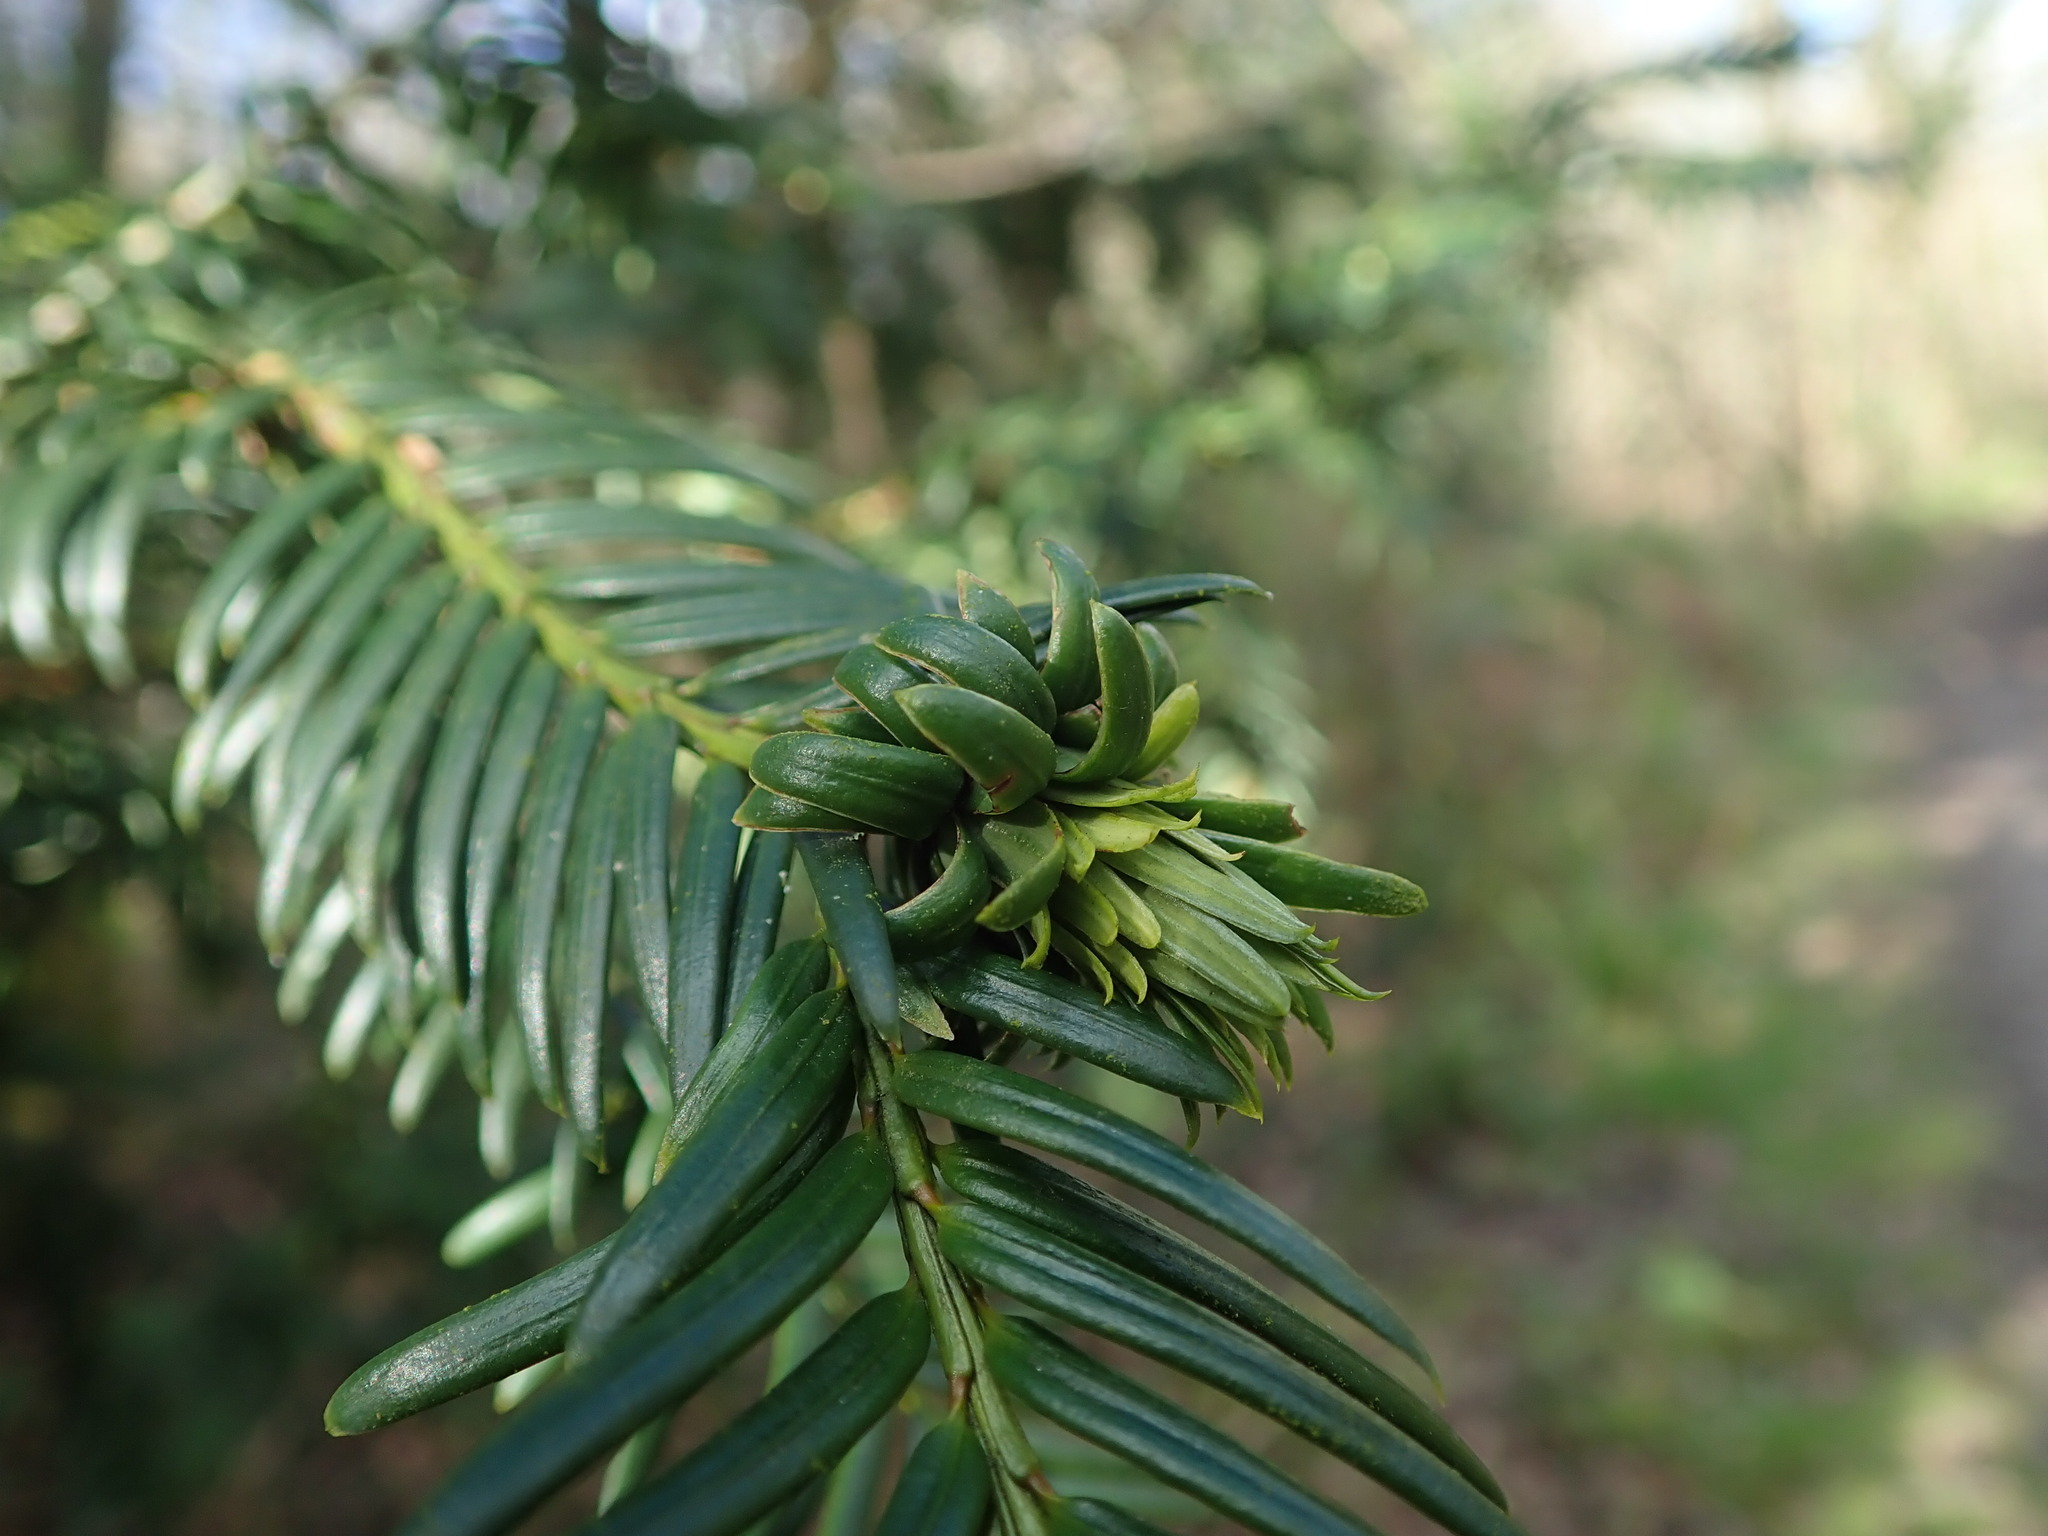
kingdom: Animalia
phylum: Arthropoda
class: Insecta
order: Diptera
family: Cecidomyiidae
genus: Taxomyia
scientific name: Taxomyia taxi
